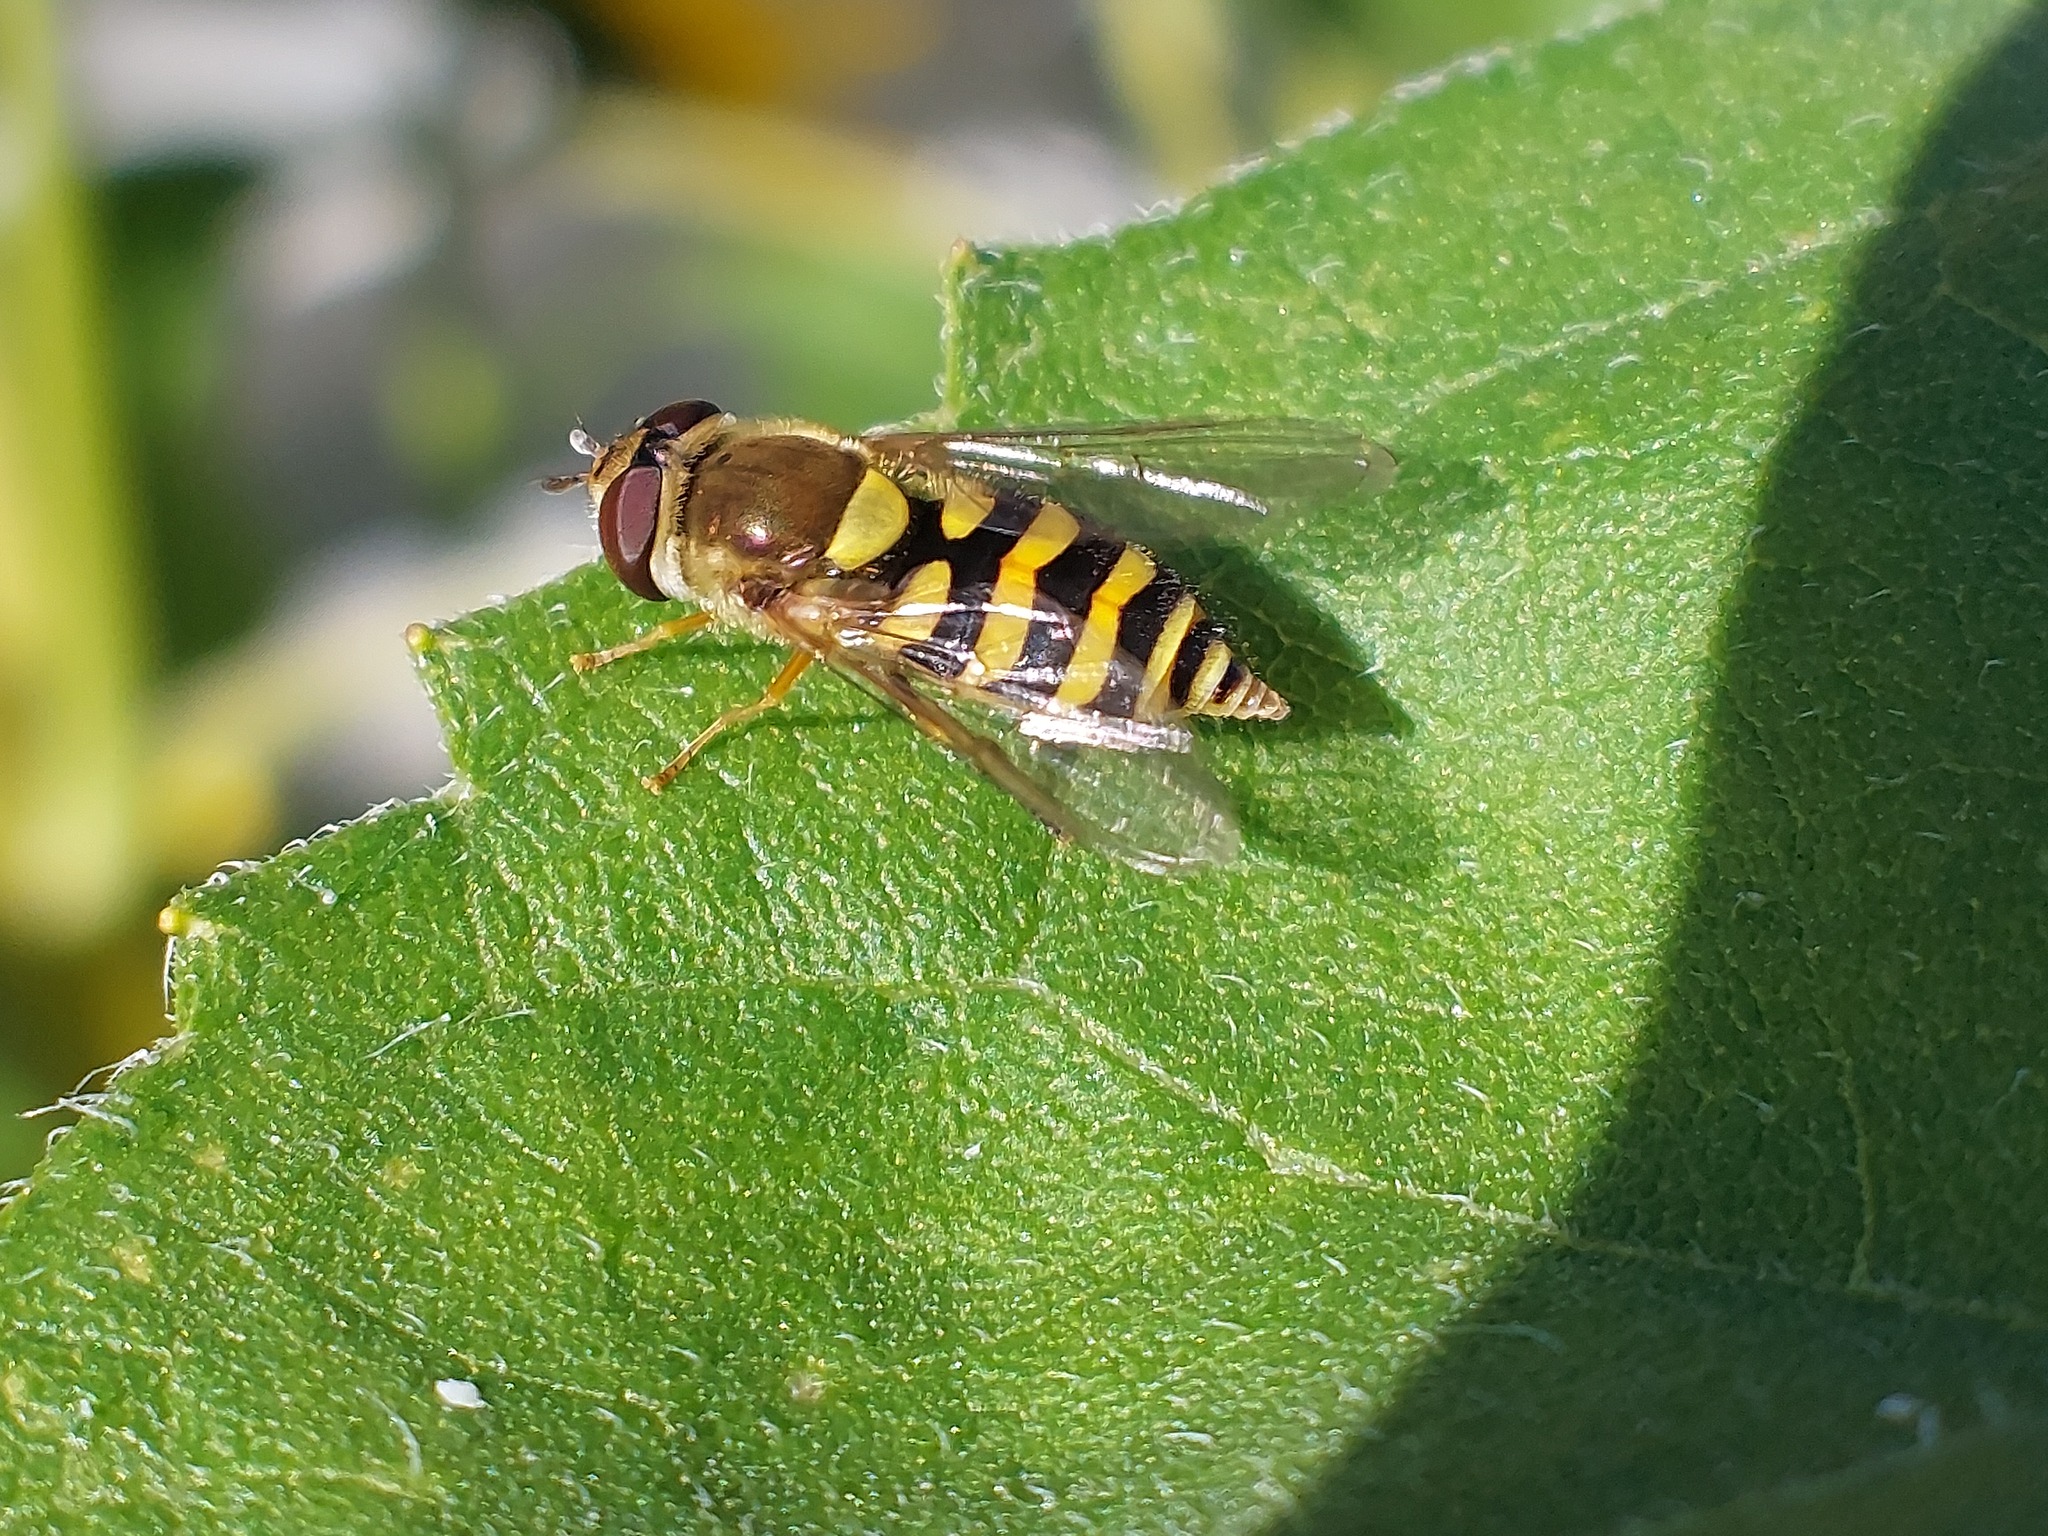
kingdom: Animalia
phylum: Arthropoda
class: Insecta
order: Diptera
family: Syrphidae
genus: Syrphus
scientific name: Syrphus
